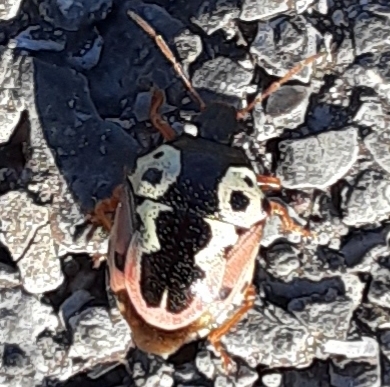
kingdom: Animalia
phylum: Arthropoda
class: Insecta
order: Hemiptera
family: Pentatomidae
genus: Stiretrus
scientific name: Stiretrus anchorago
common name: Anchor stink bug
